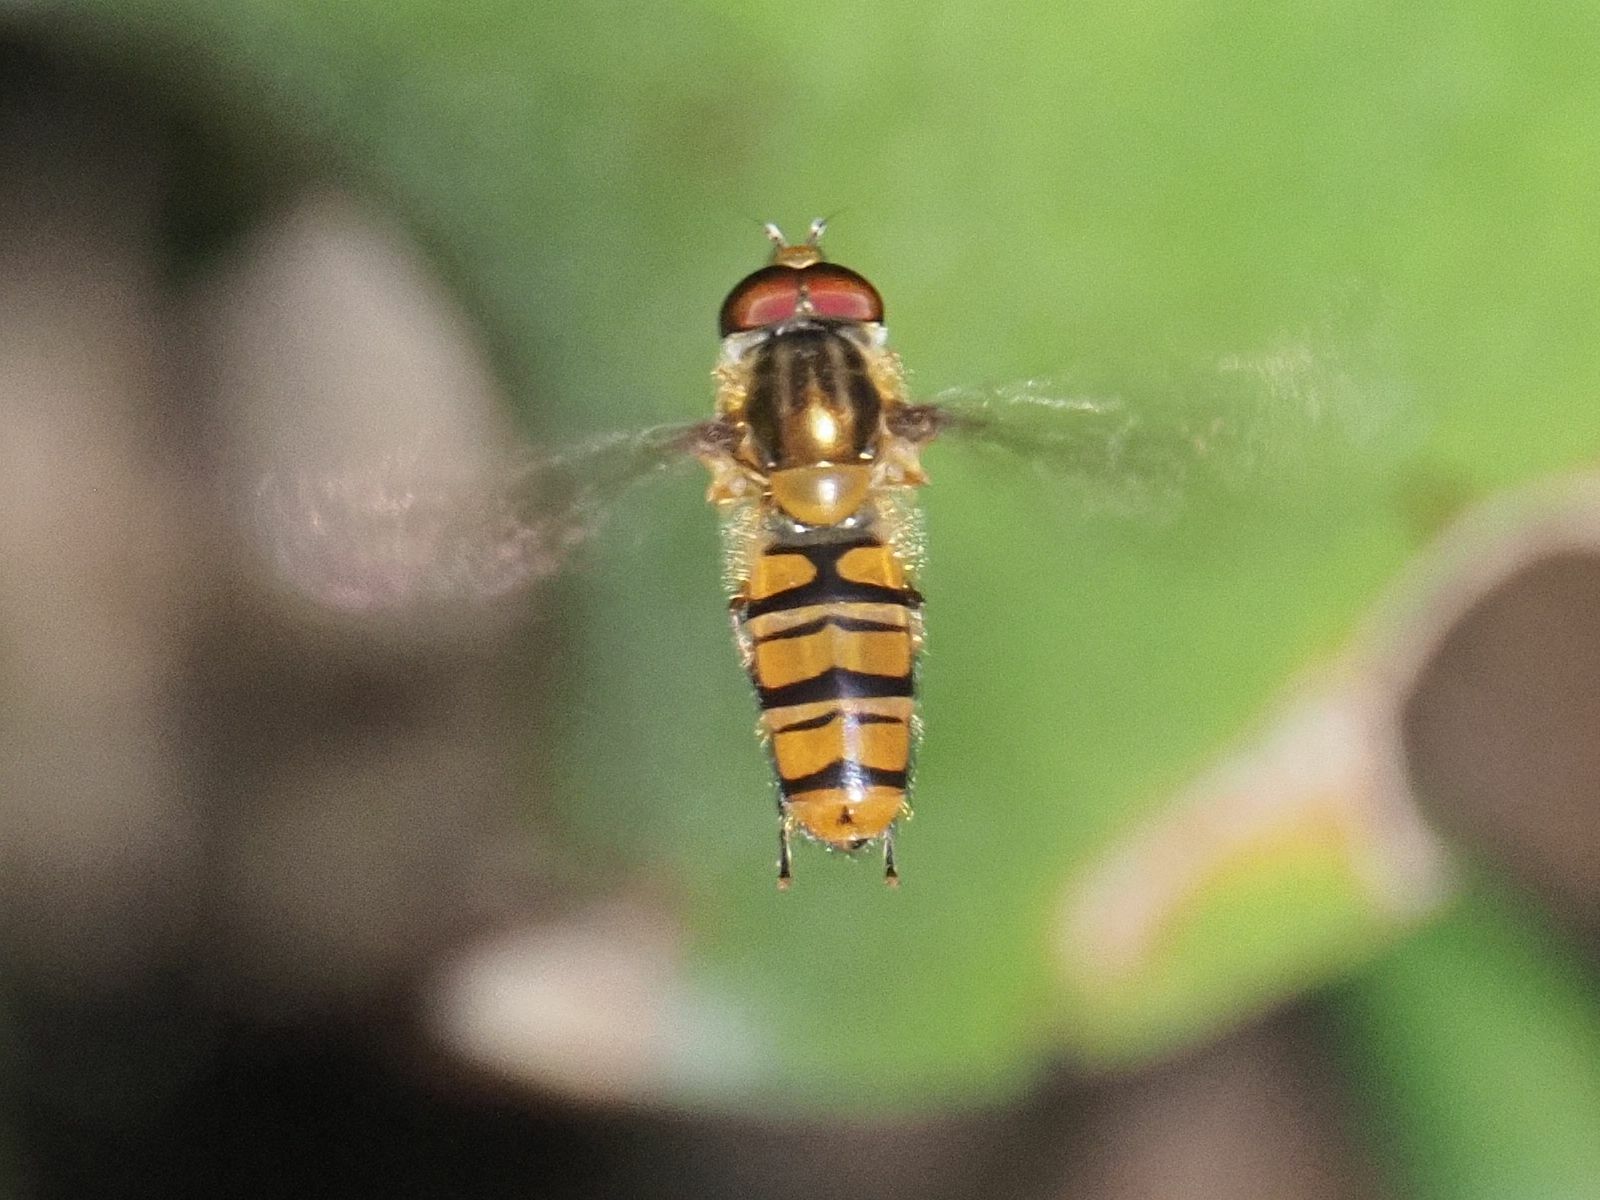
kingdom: Animalia
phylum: Arthropoda
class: Insecta
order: Diptera
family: Syrphidae
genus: Episyrphus
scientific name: Episyrphus balteatus
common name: Marmalade hoverfly
